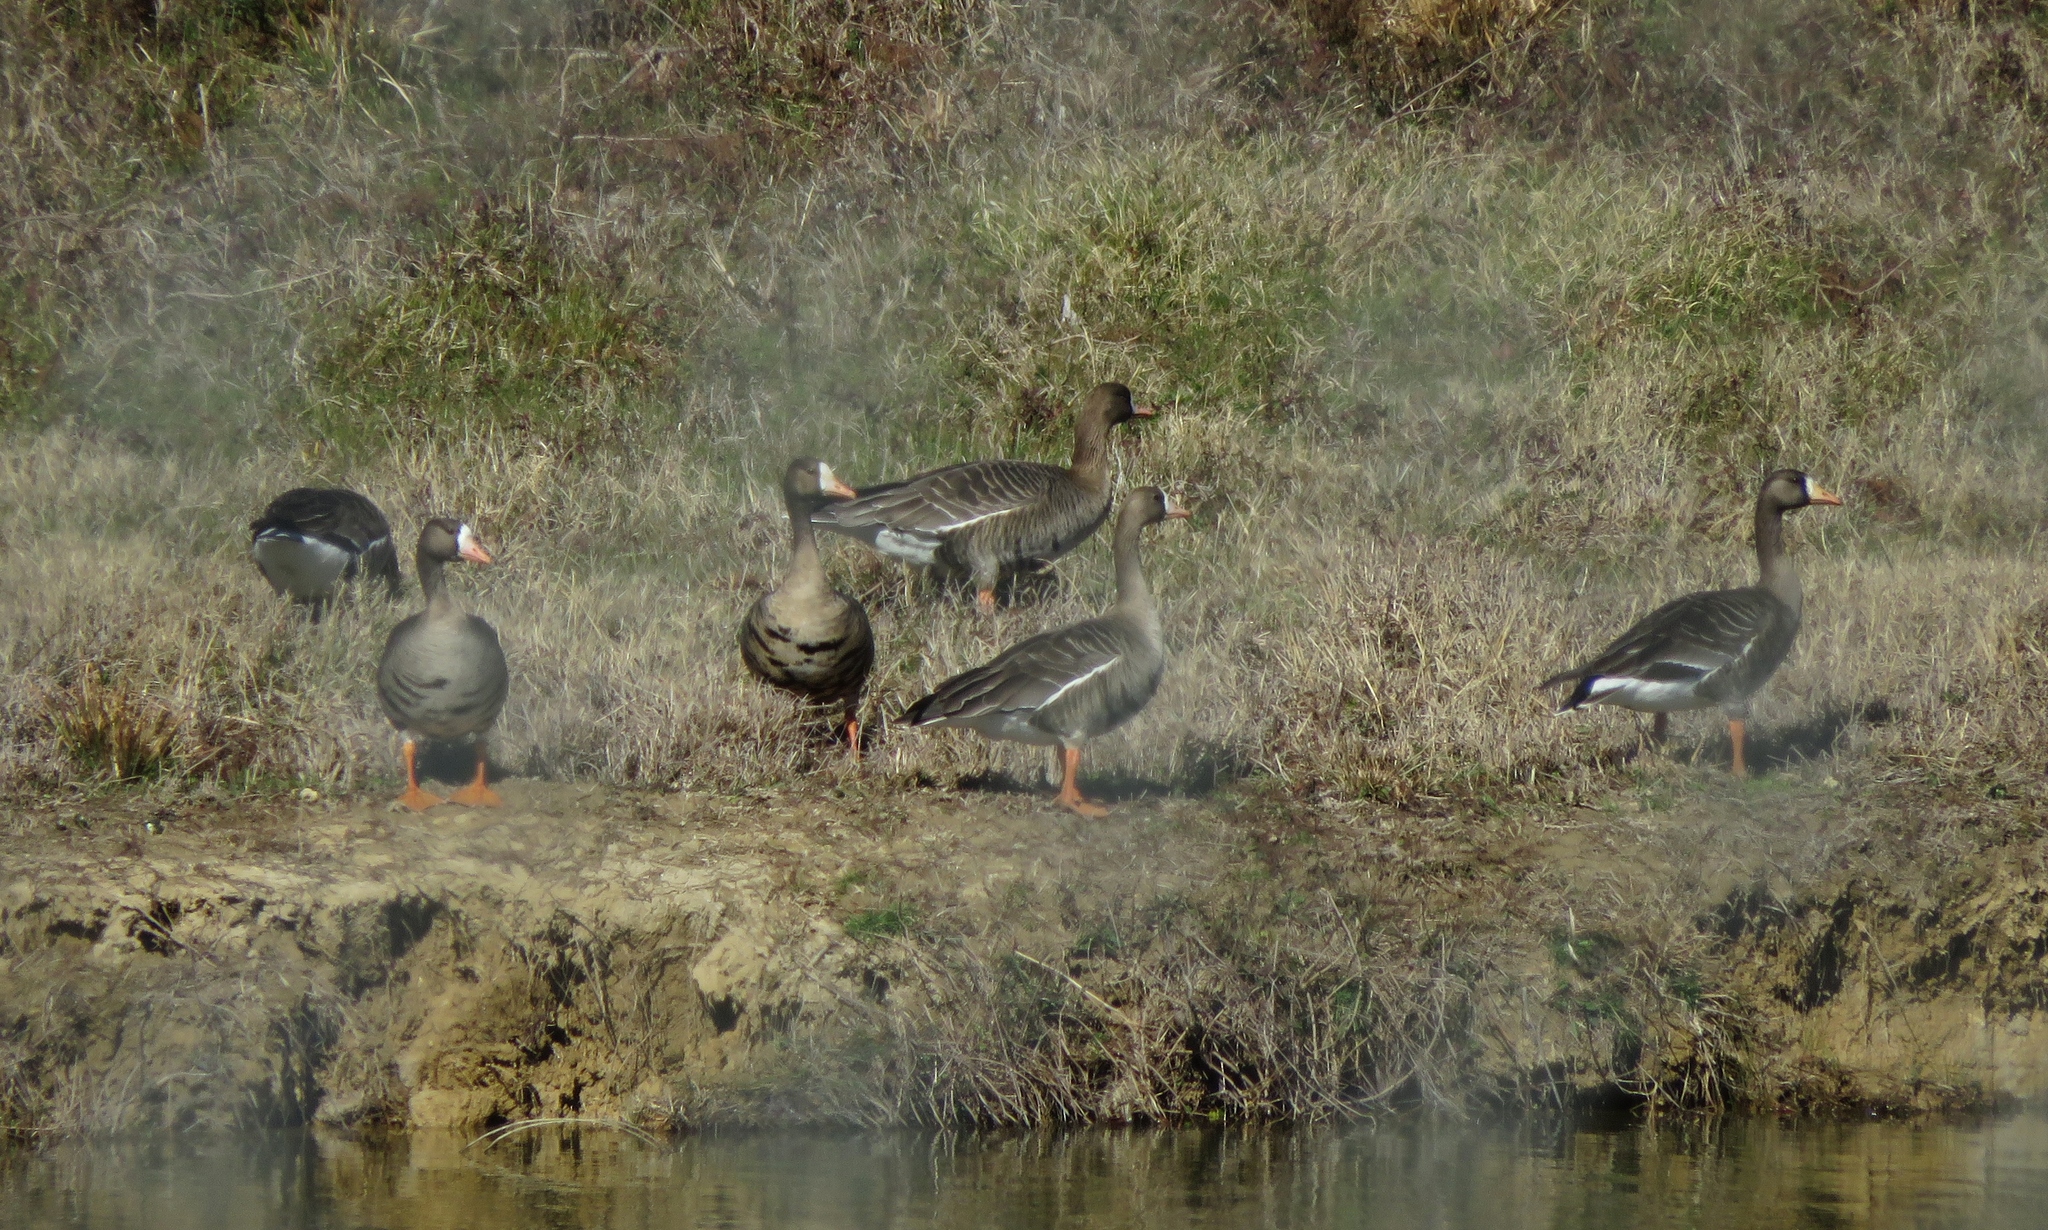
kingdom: Animalia
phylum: Chordata
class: Aves
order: Anseriformes
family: Anatidae
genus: Anser
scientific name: Anser albifrons
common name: Greater white-fronted goose
